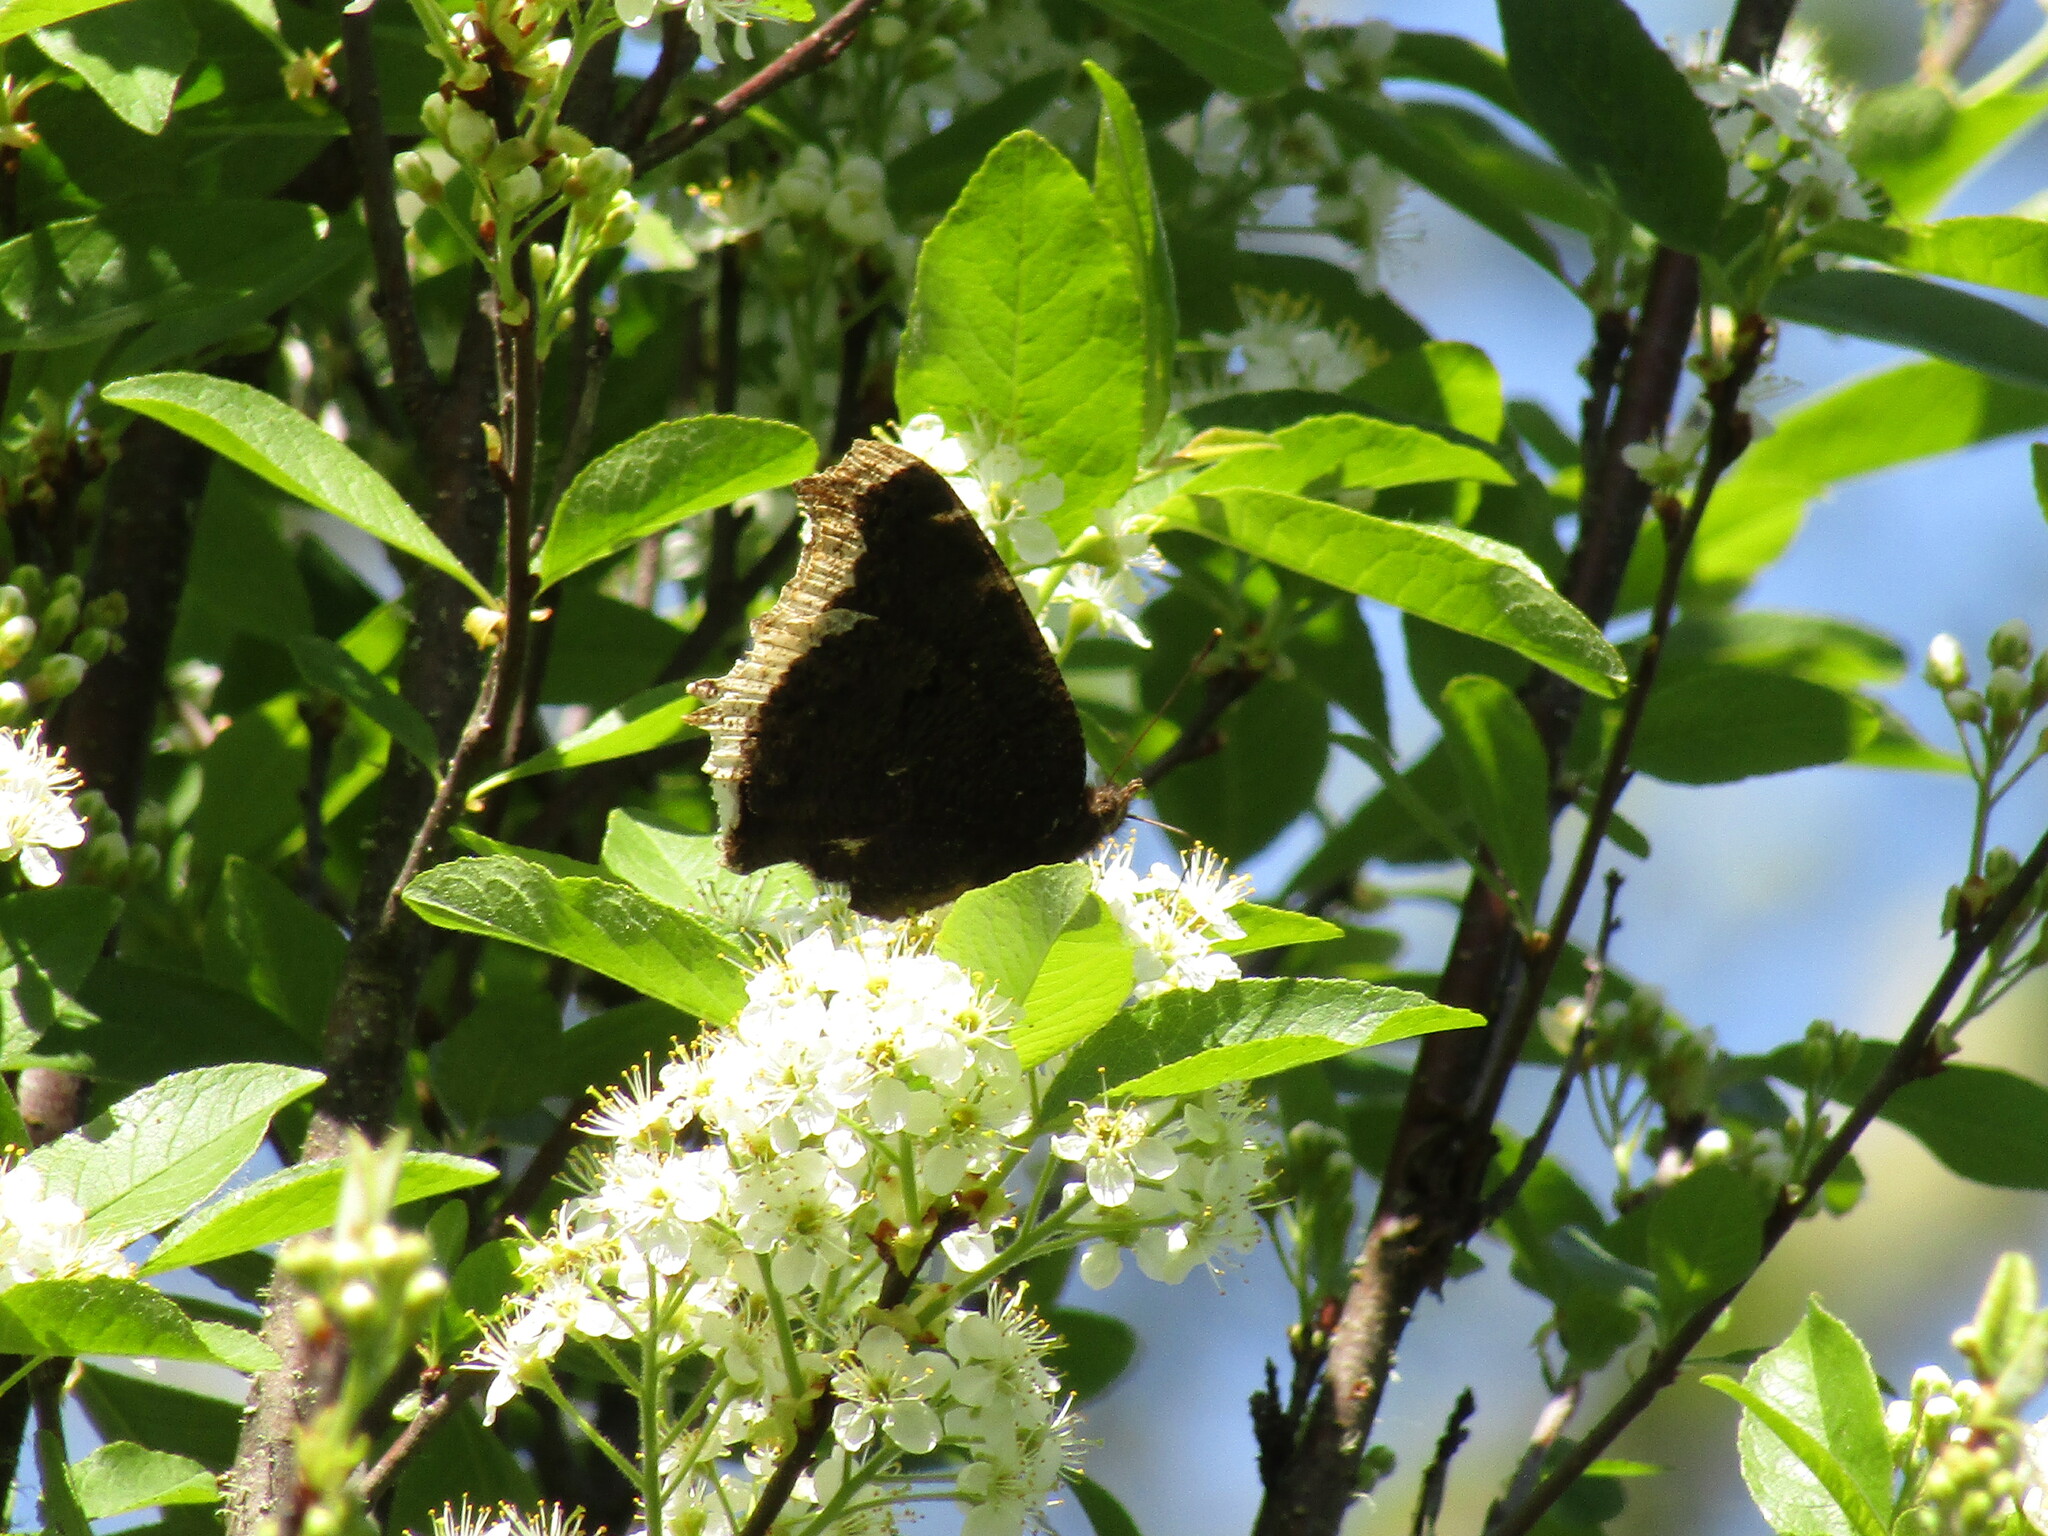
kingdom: Animalia
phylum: Arthropoda
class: Insecta
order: Lepidoptera
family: Nymphalidae
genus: Nymphalis
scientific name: Nymphalis antiopa
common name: Camberwell beauty
